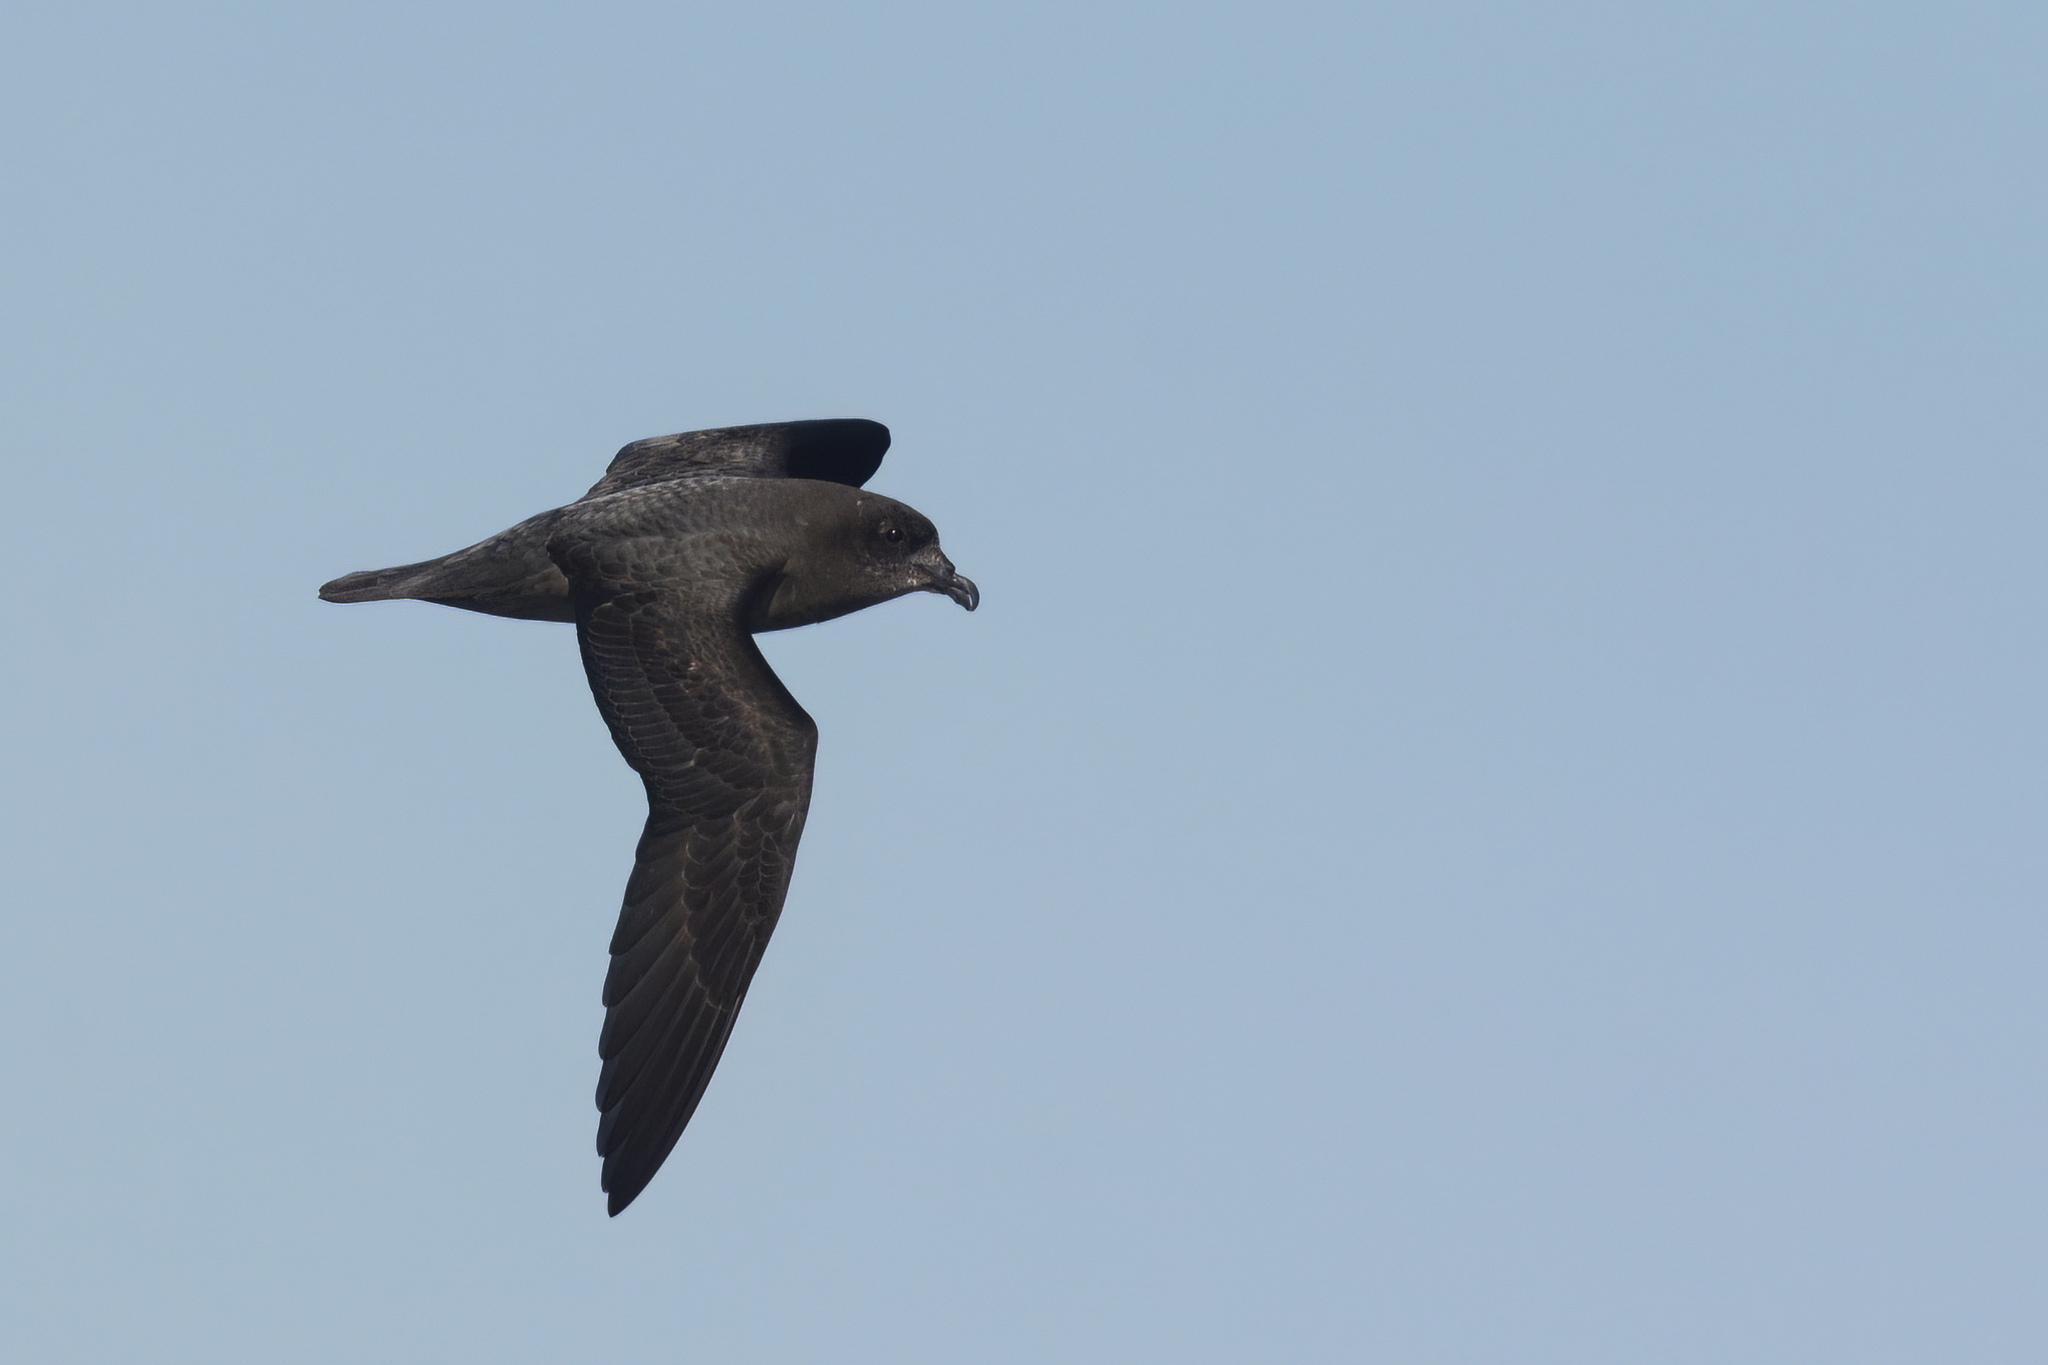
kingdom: Animalia
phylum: Chordata
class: Aves
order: Procellariiformes
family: Procellariidae
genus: Pterodroma
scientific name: Pterodroma solandri
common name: Providence petrel
